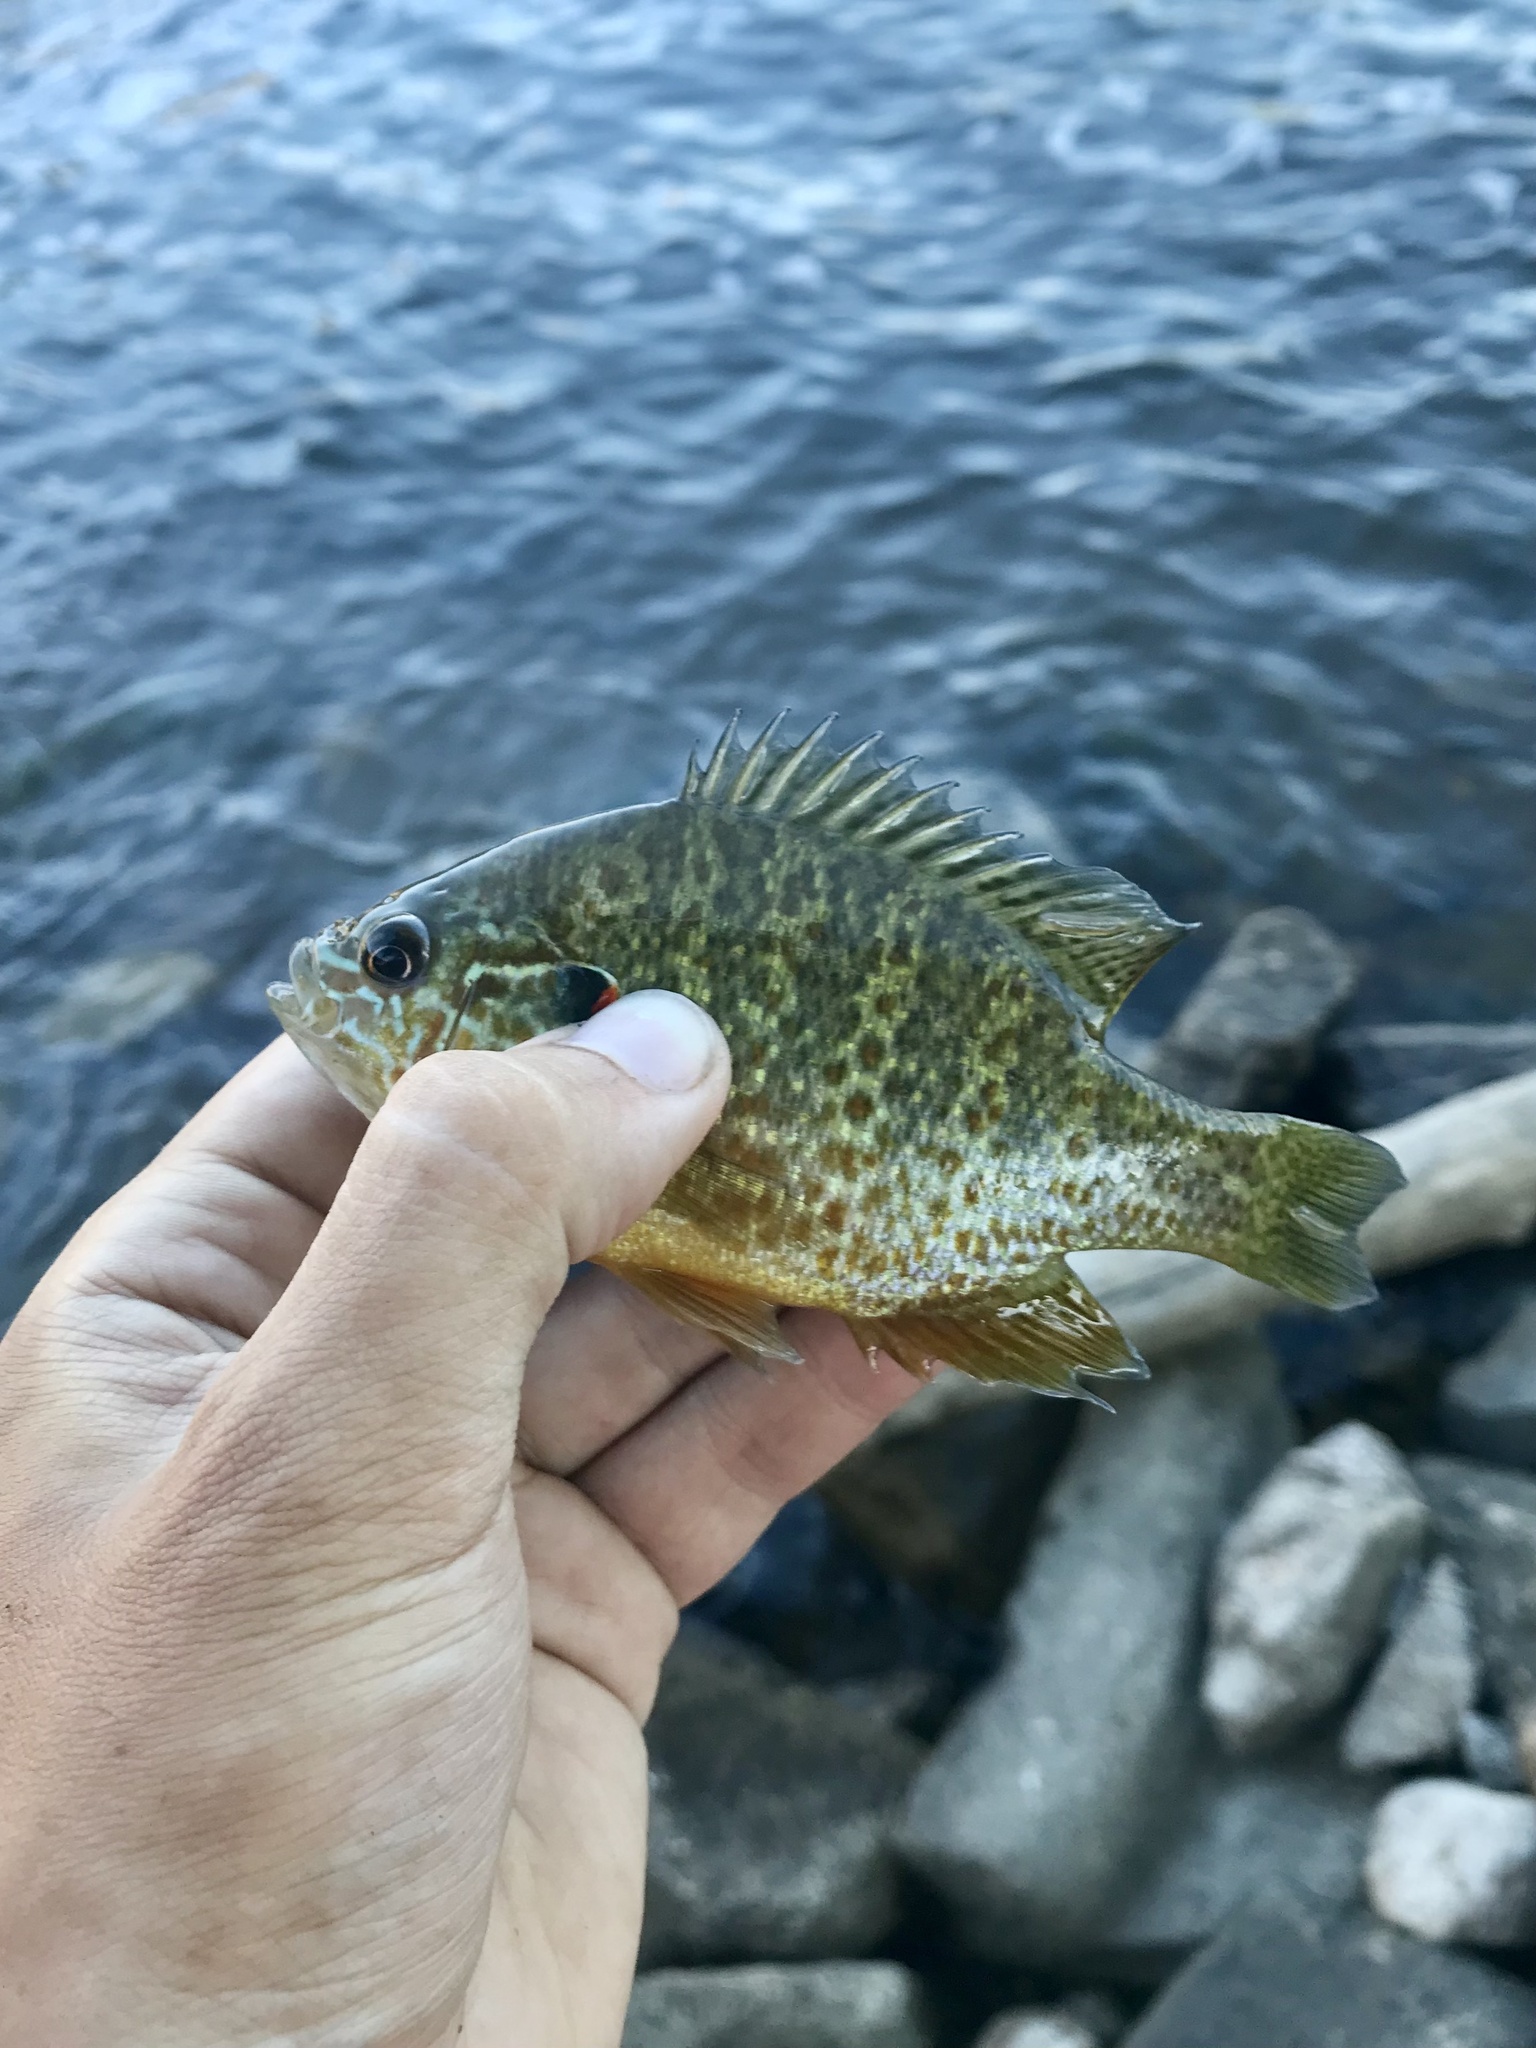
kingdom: Animalia
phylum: Chordata
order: Perciformes
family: Centrarchidae
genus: Lepomis
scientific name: Lepomis gibbosus
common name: Pumpkinseed
